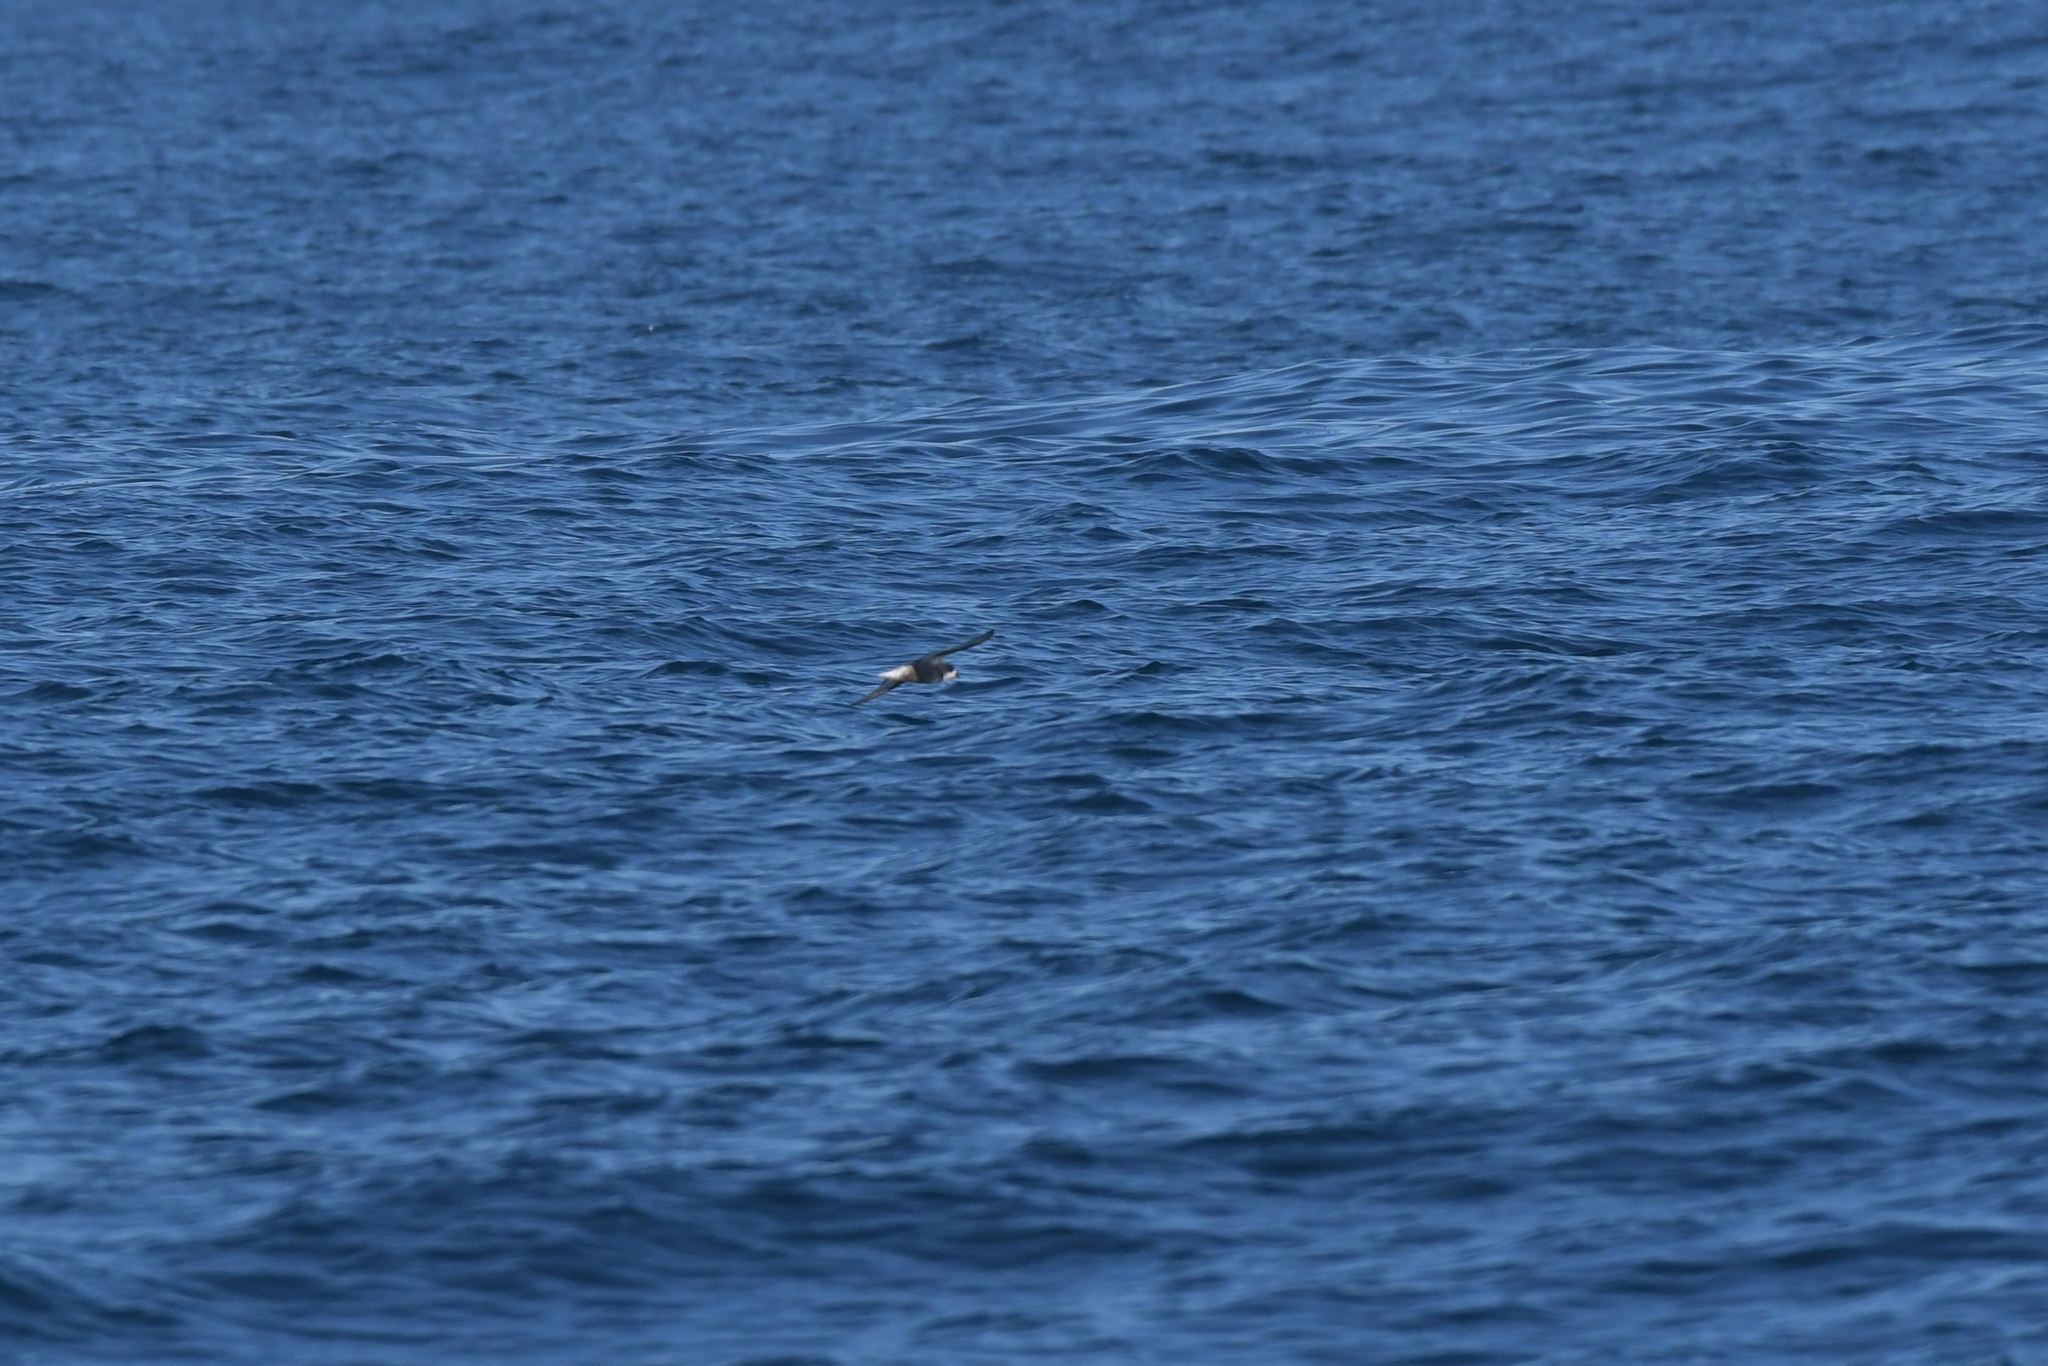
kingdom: Animalia
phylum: Chordata
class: Aves
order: Procellariiformes
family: Procellariidae
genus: Pterodroma
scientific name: Pterodroma inexpectata
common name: Mottled petrel
